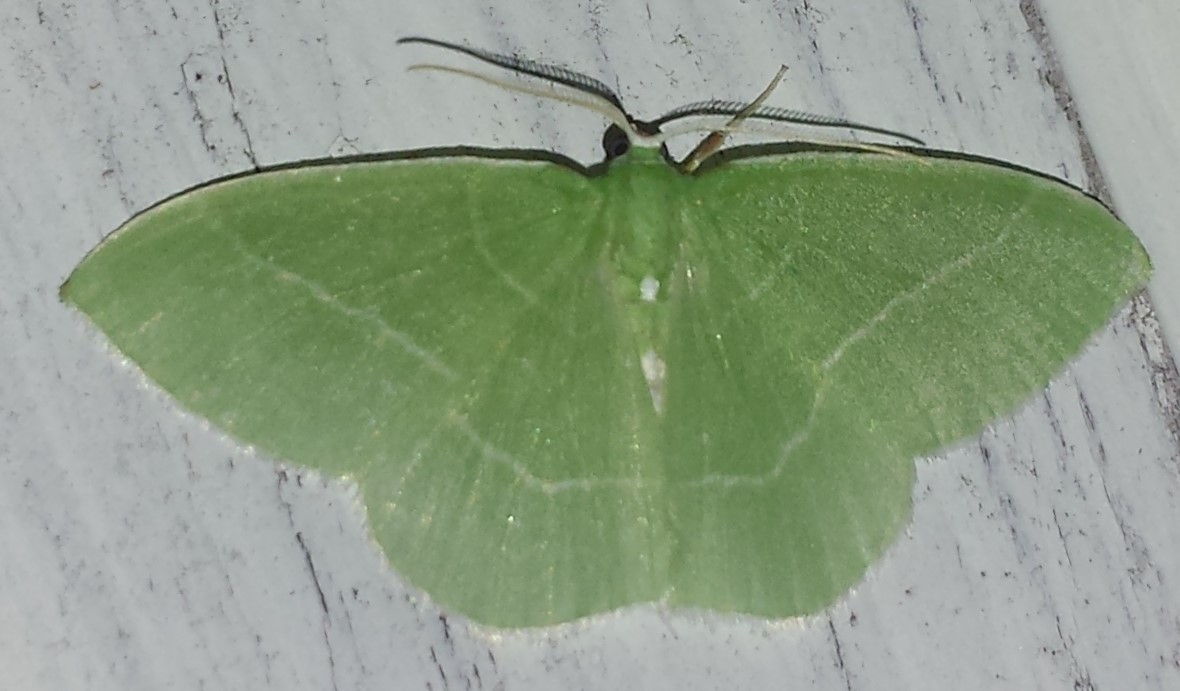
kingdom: Animalia
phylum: Arthropoda
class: Insecta
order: Lepidoptera
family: Geometridae
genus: Nemoria
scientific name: Nemoria mimosaria
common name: White-fringed emerald
